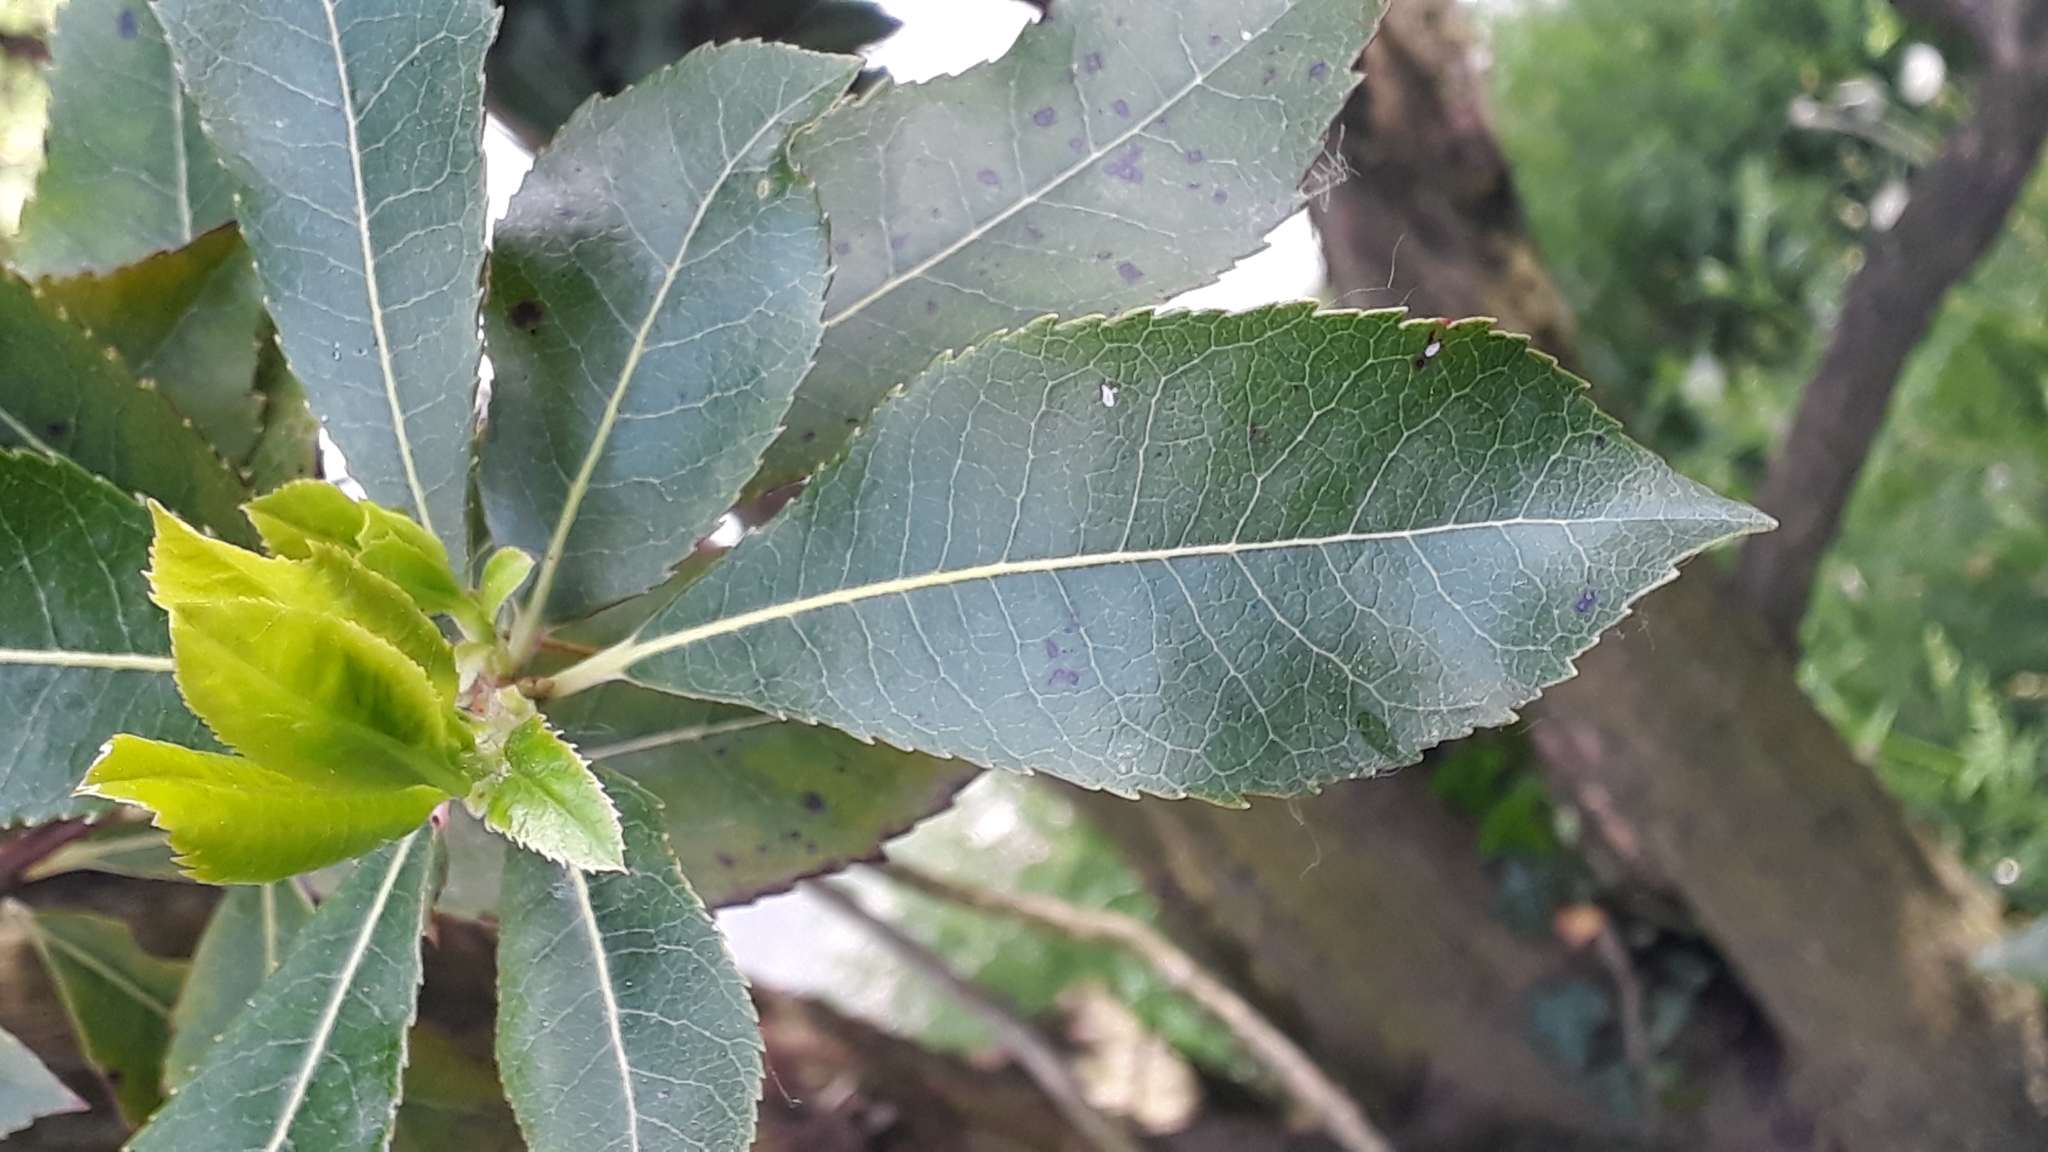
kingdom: Plantae
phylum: Tracheophyta
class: Magnoliopsida
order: Ericales
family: Ericaceae
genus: Arbutus
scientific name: Arbutus unedo
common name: Strawberry-tree
